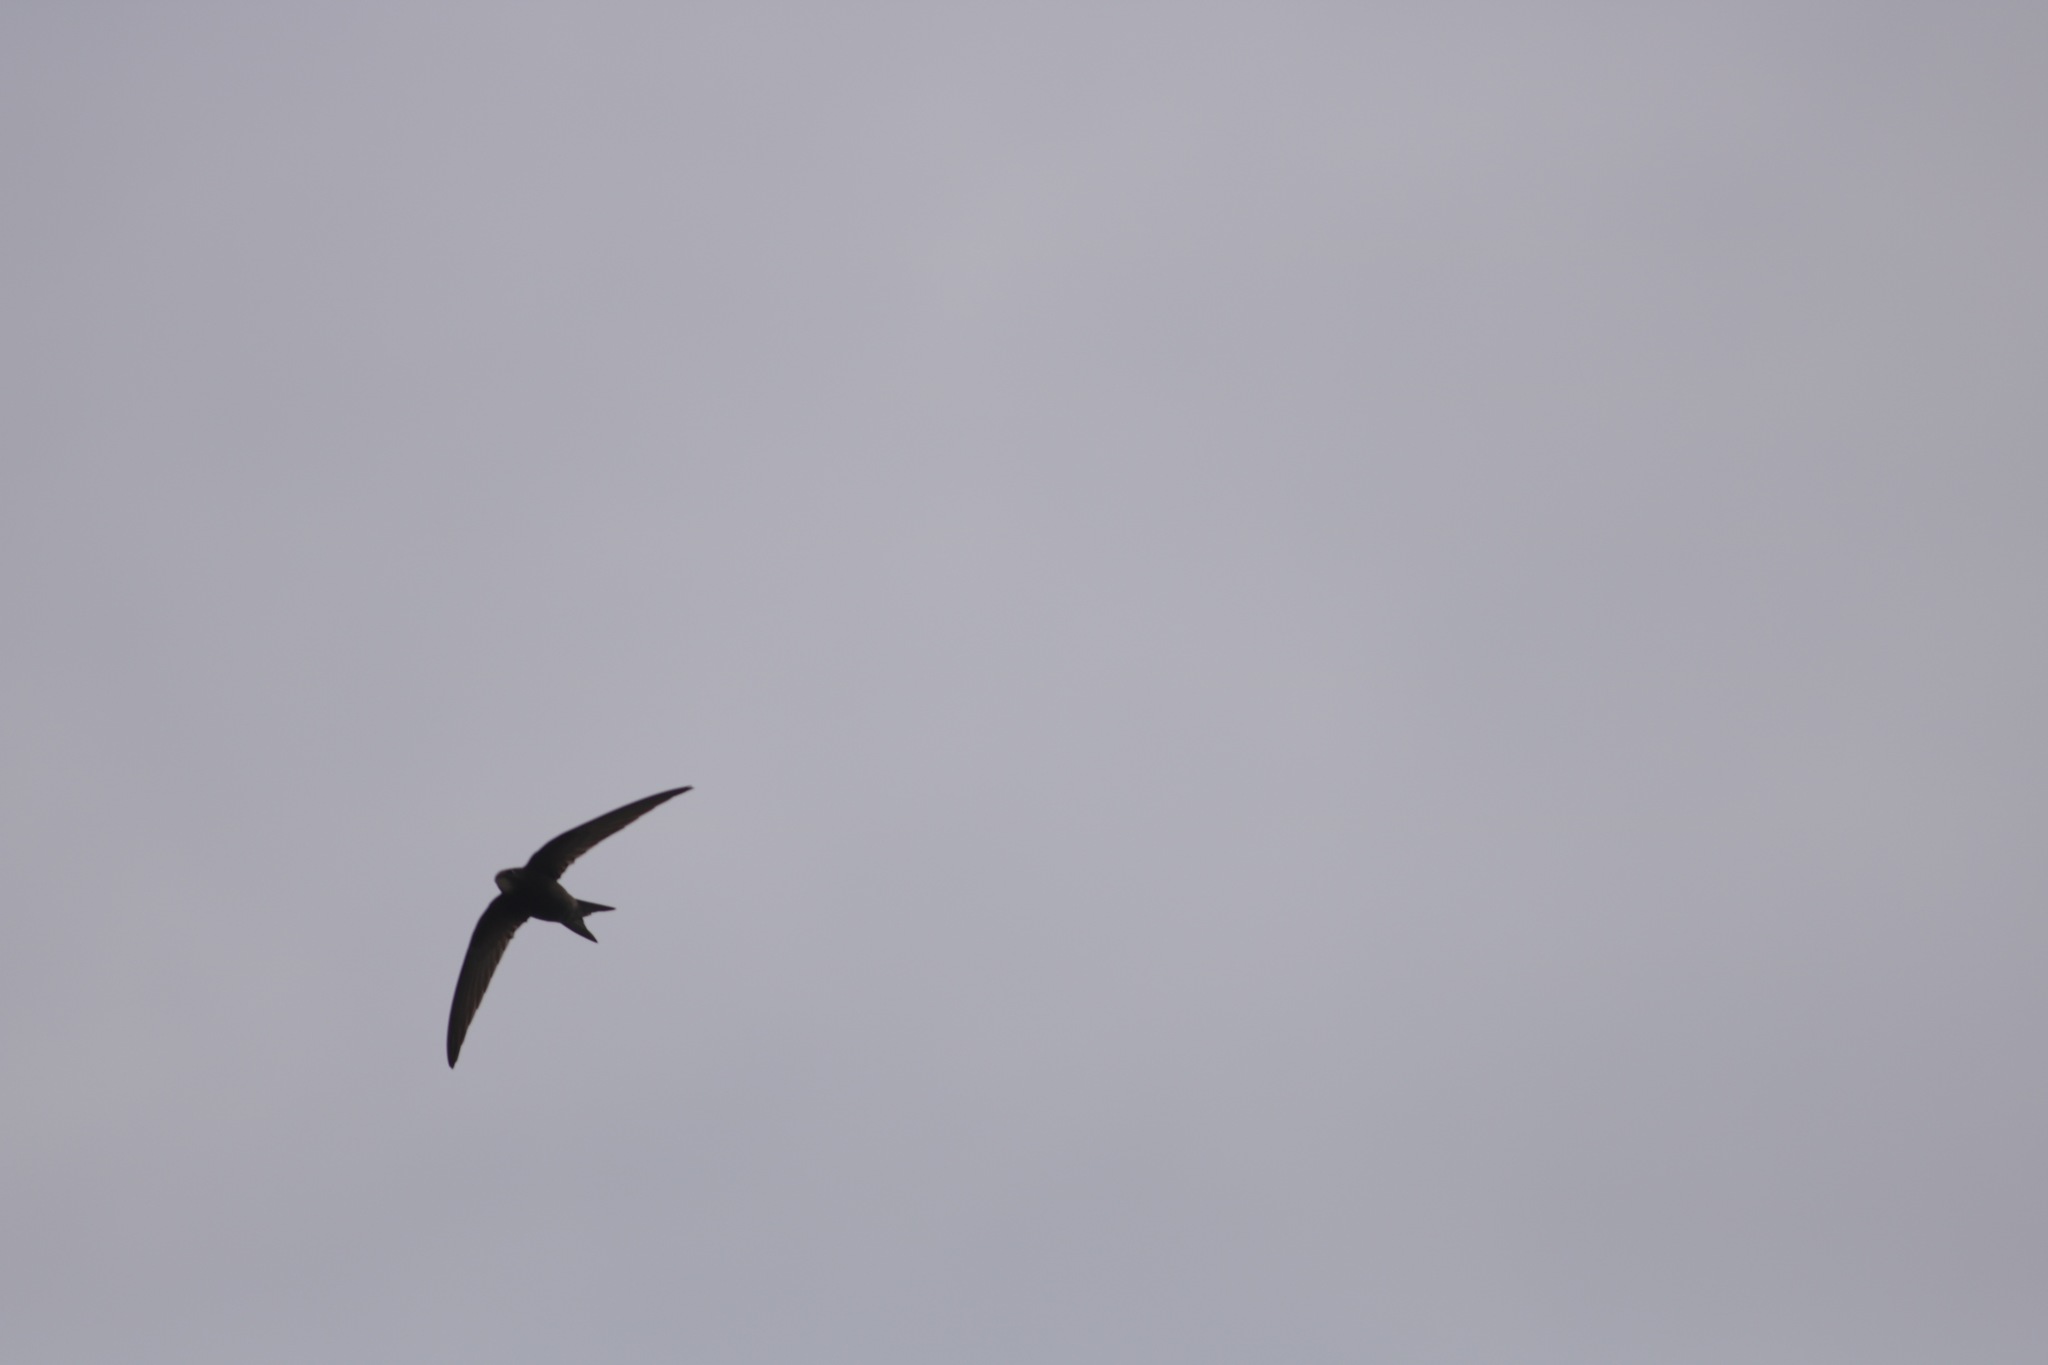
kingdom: Animalia
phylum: Chordata
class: Aves
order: Apodiformes
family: Apodidae
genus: Apus
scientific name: Apus apus
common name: Common swift
